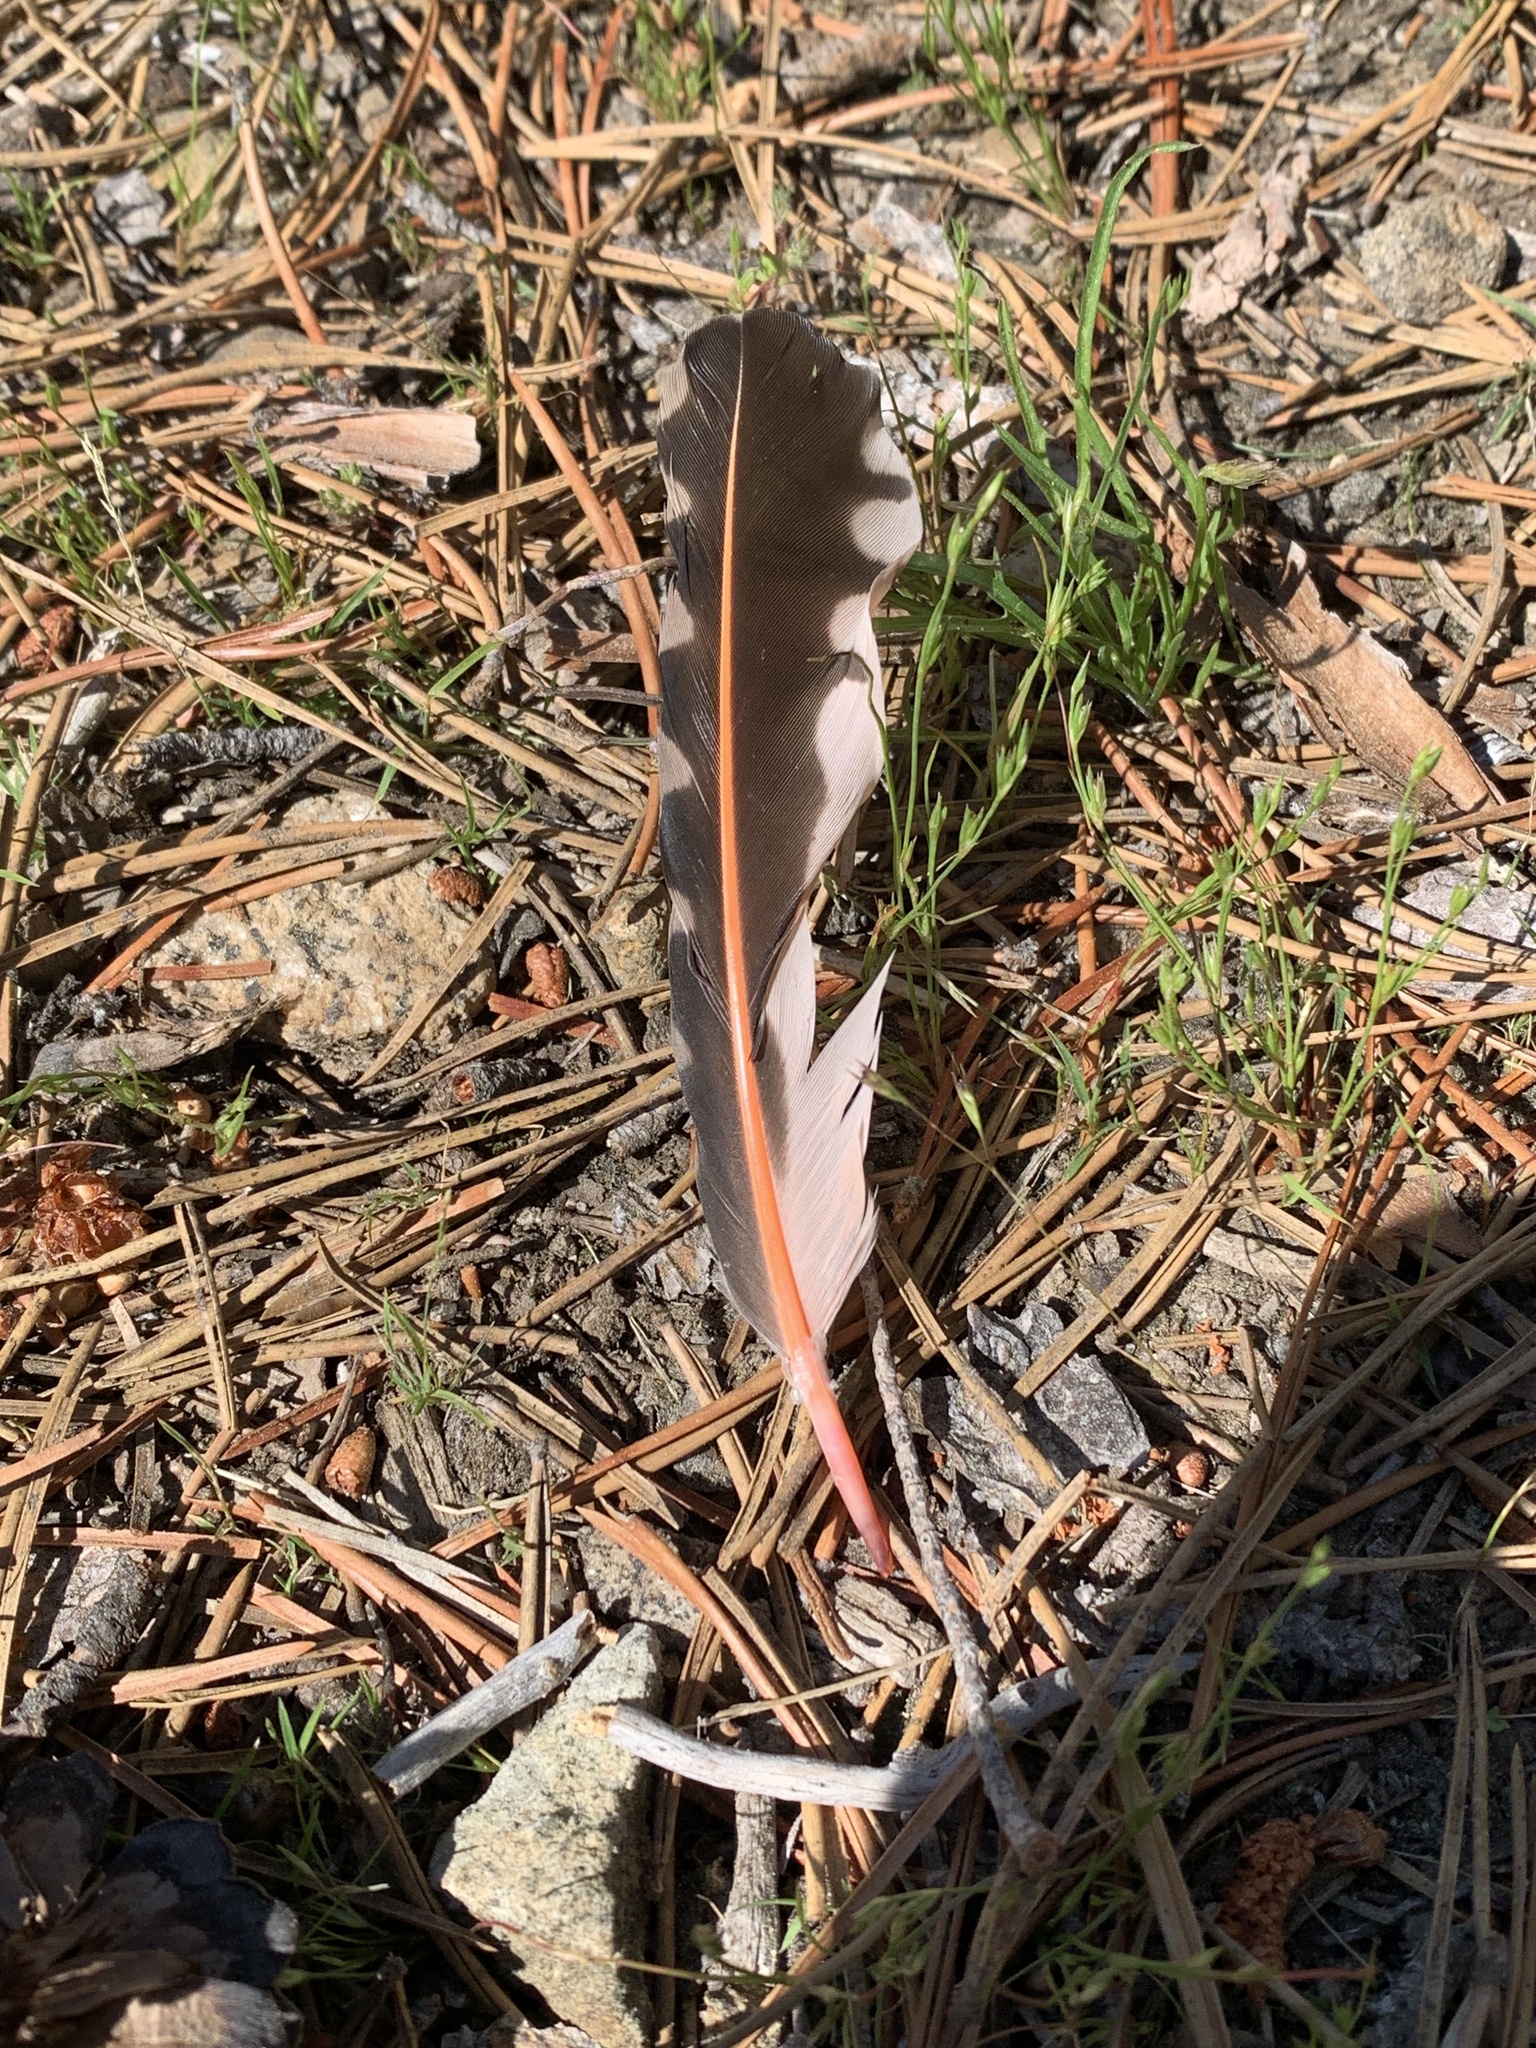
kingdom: Animalia
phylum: Chordata
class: Aves
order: Piciformes
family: Picidae
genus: Colaptes
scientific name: Colaptes auratus
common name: Northern flicker
